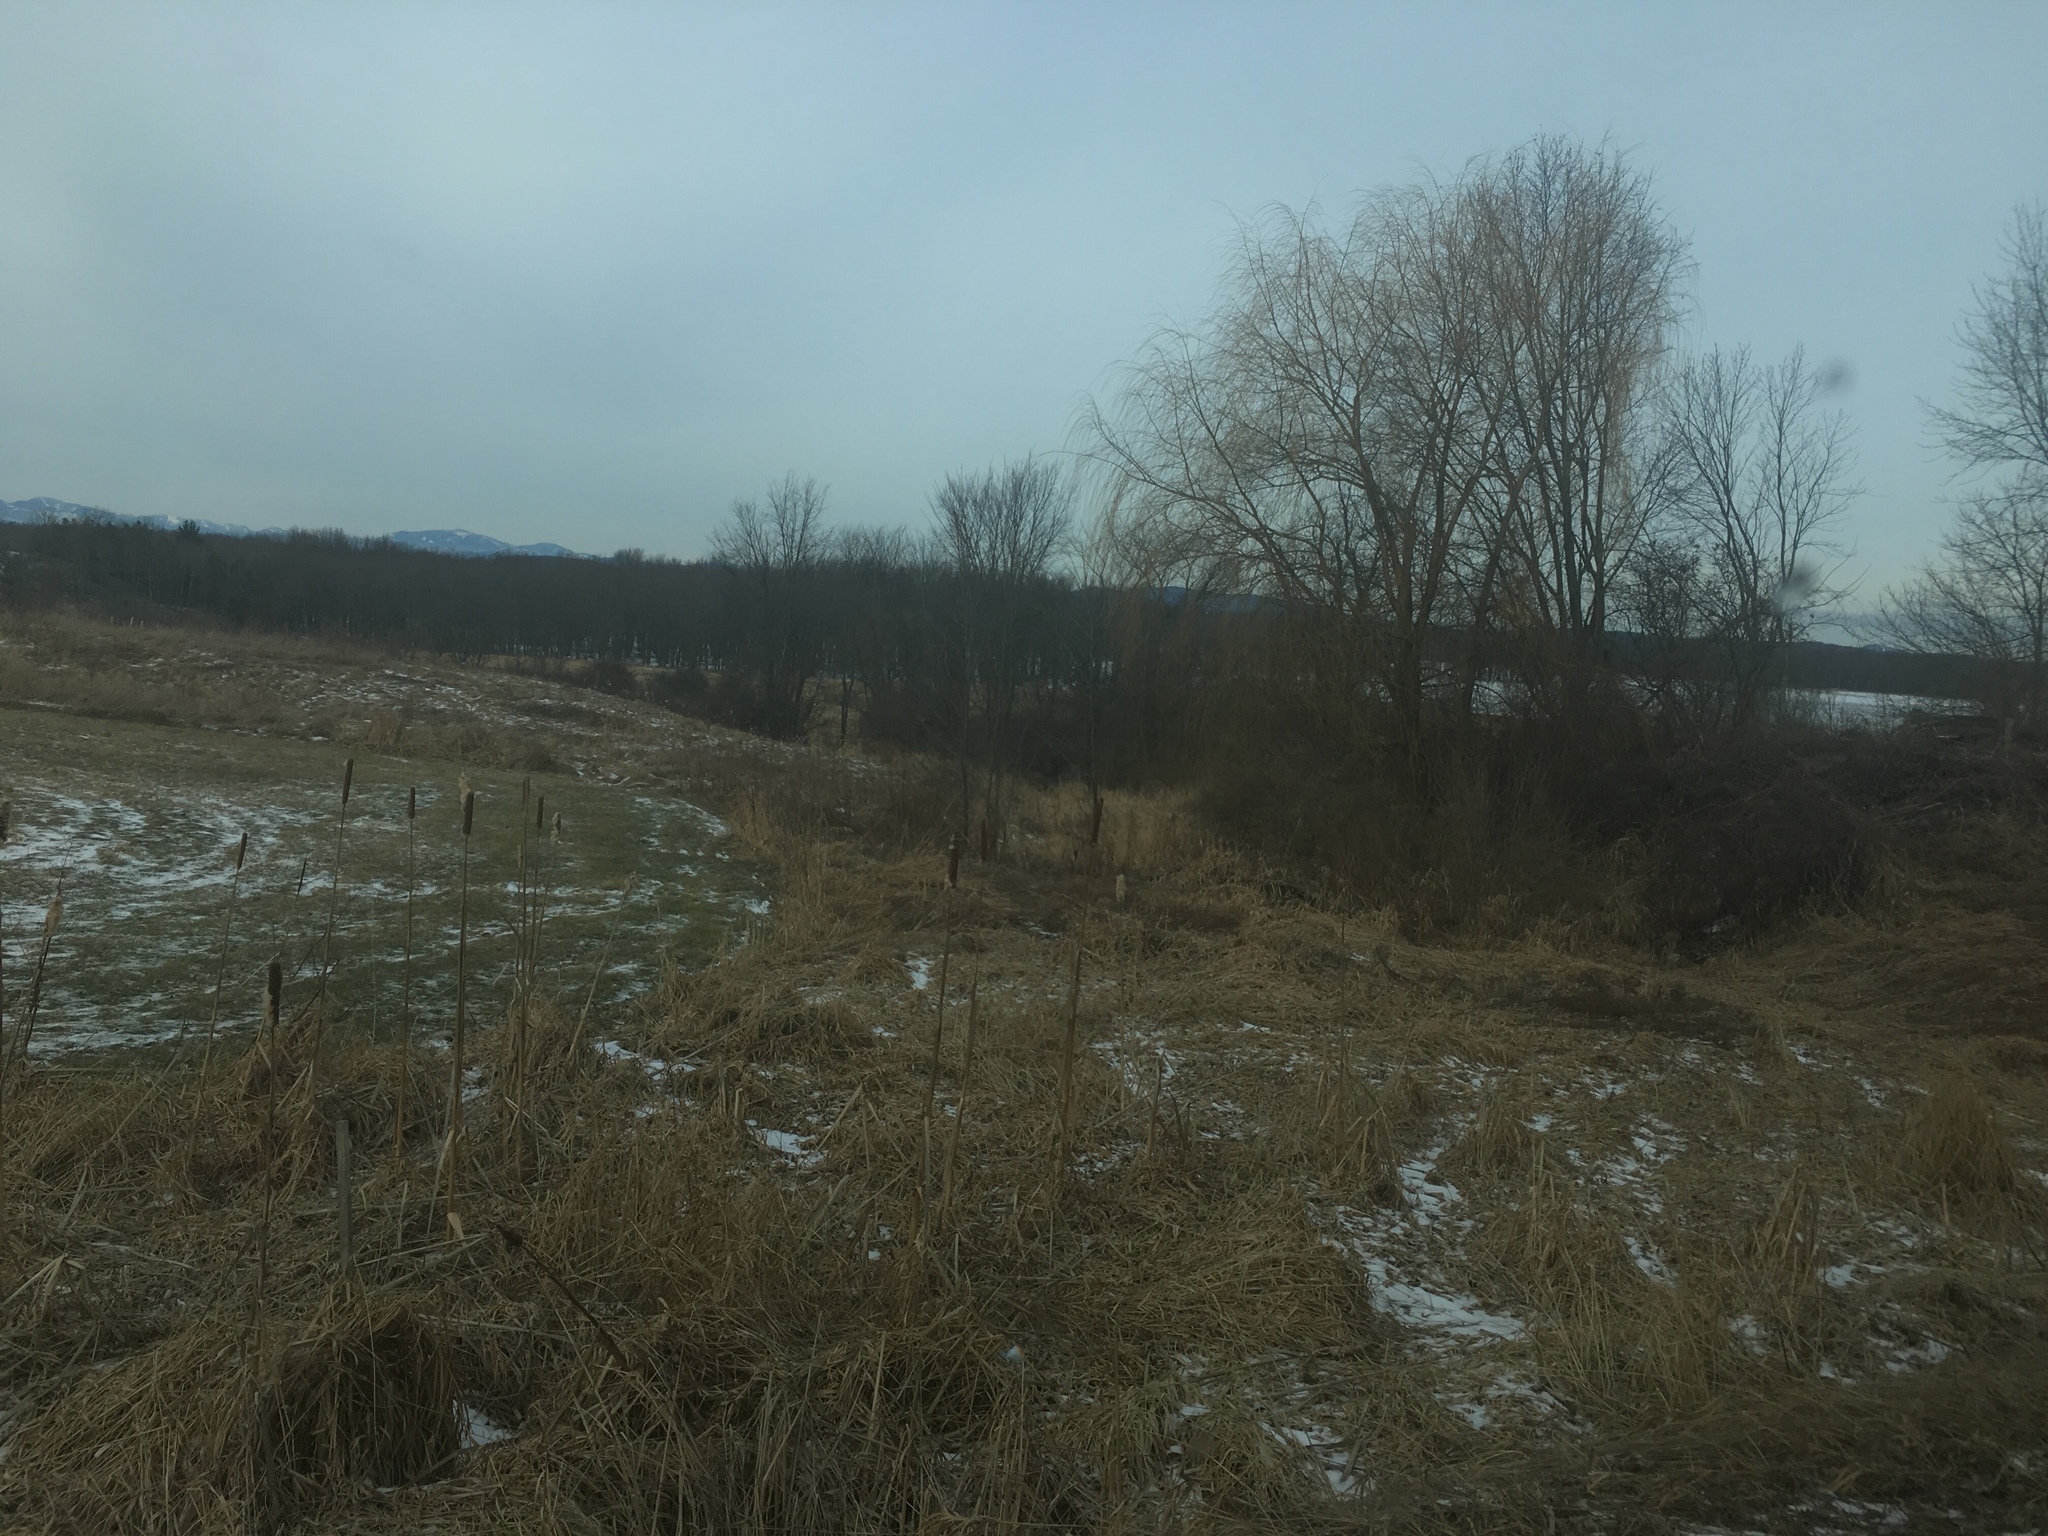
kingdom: Plantae
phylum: Tracheophyta
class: Liliopsida
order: Poales
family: Typhaceae
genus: Typha
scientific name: Typha
